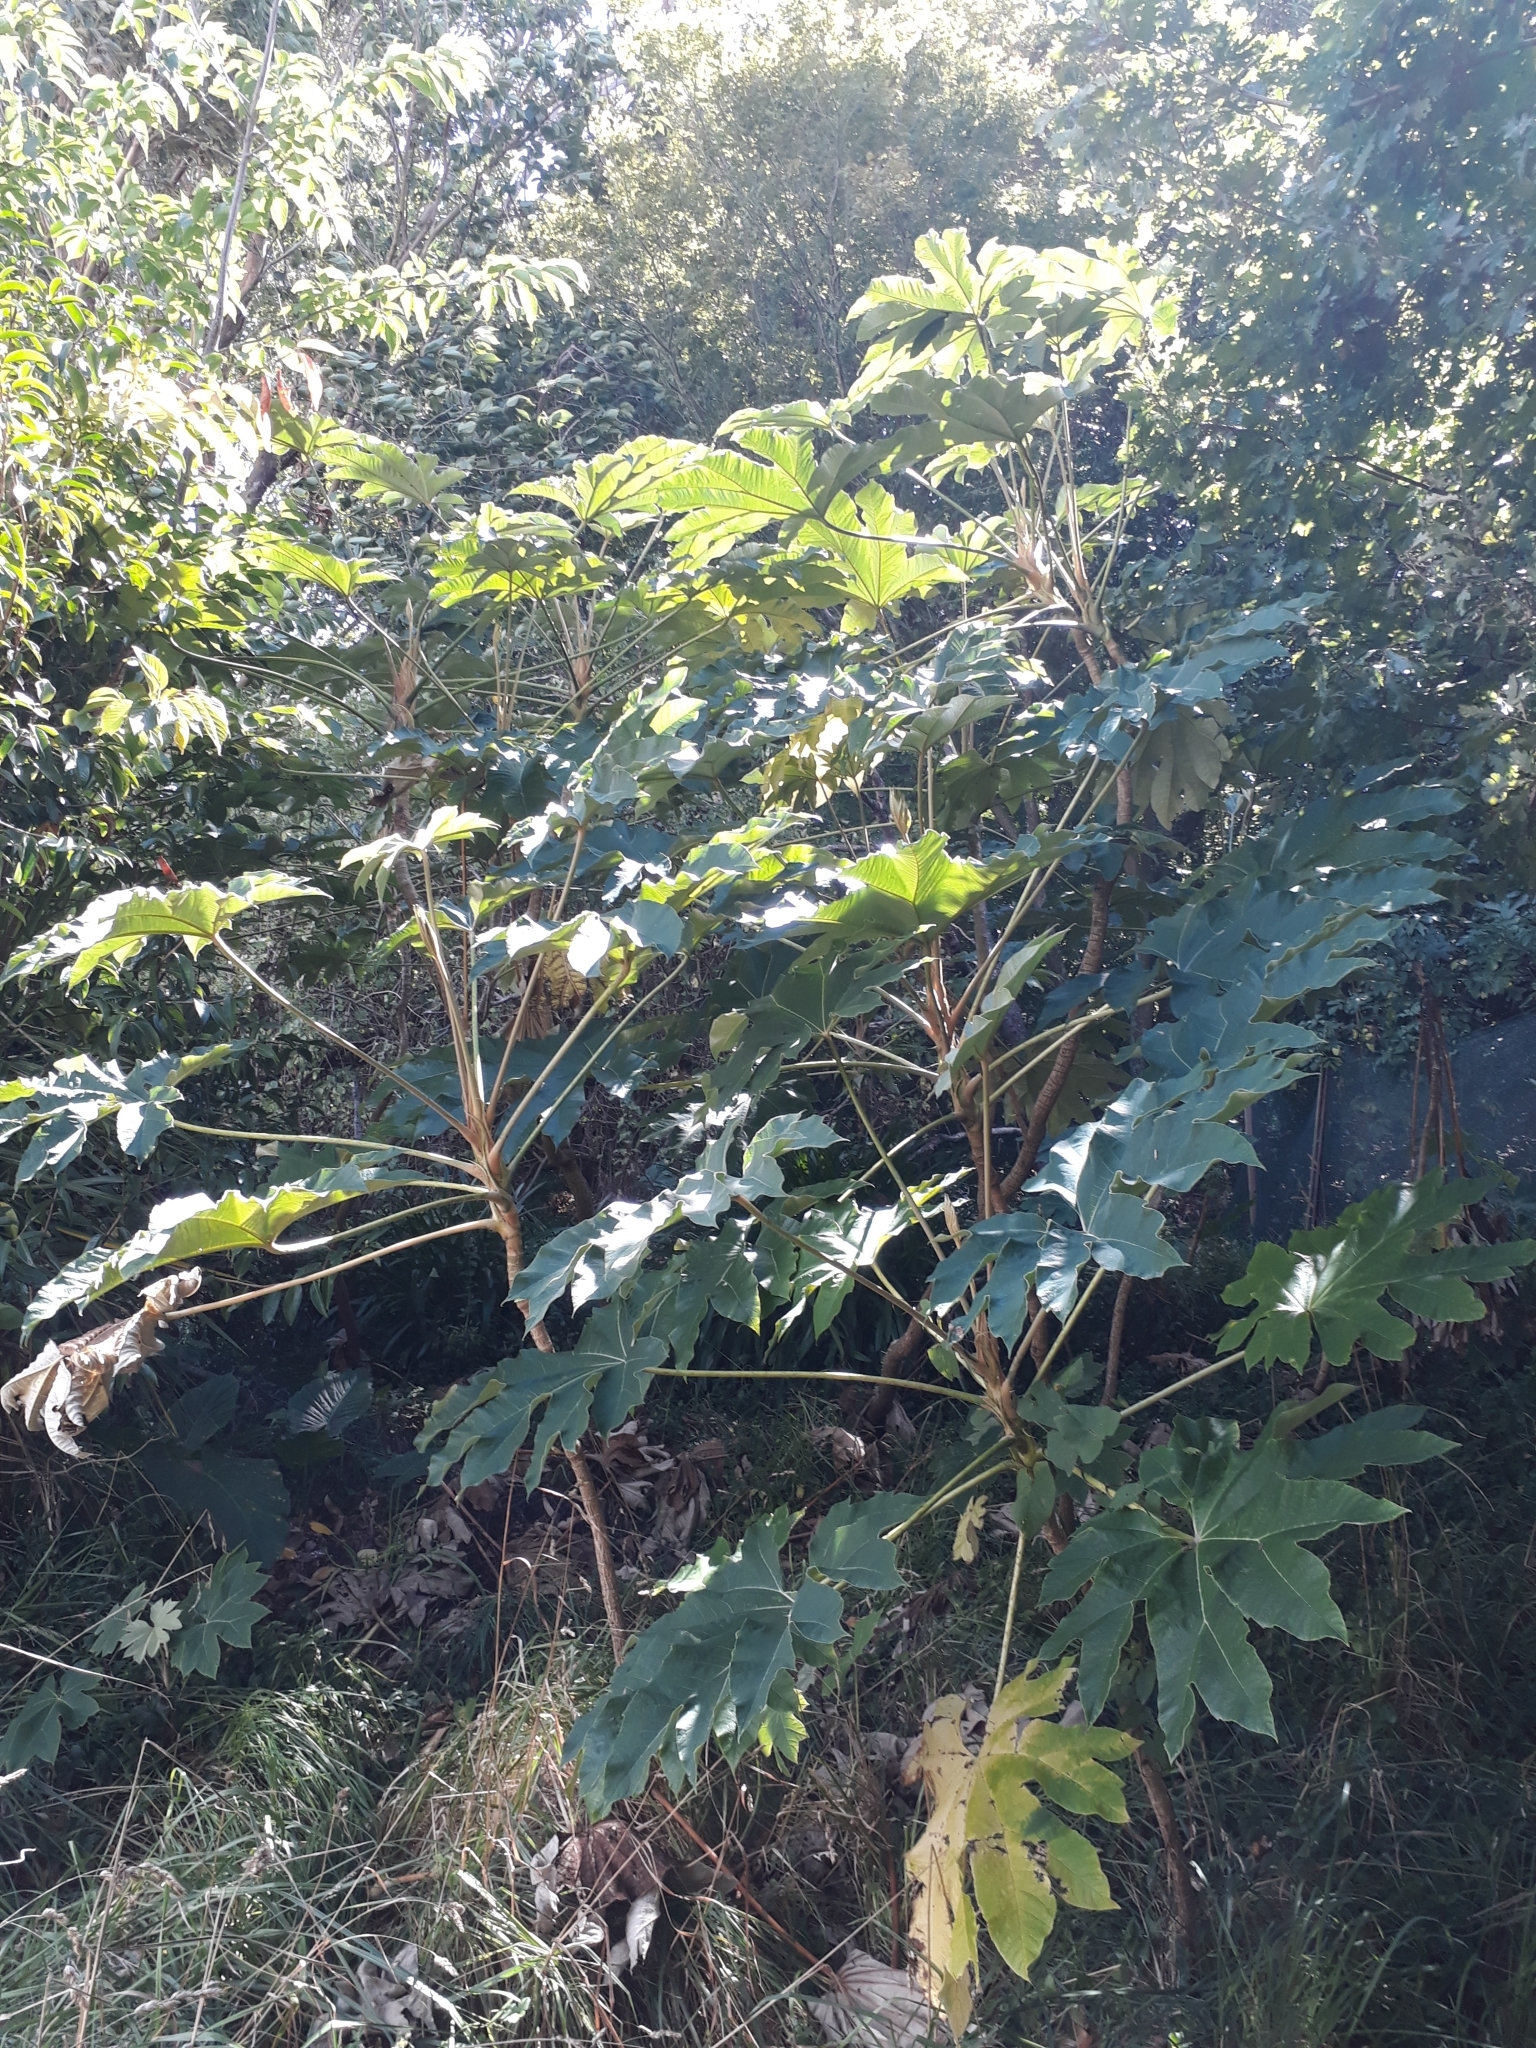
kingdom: Plantae
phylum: Tracheophyta
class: Magnoliopsida
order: Apiales
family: Araliaceae
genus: Tetrapanax
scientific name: Tetrapanax papyrifer
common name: Rice-paper plant
